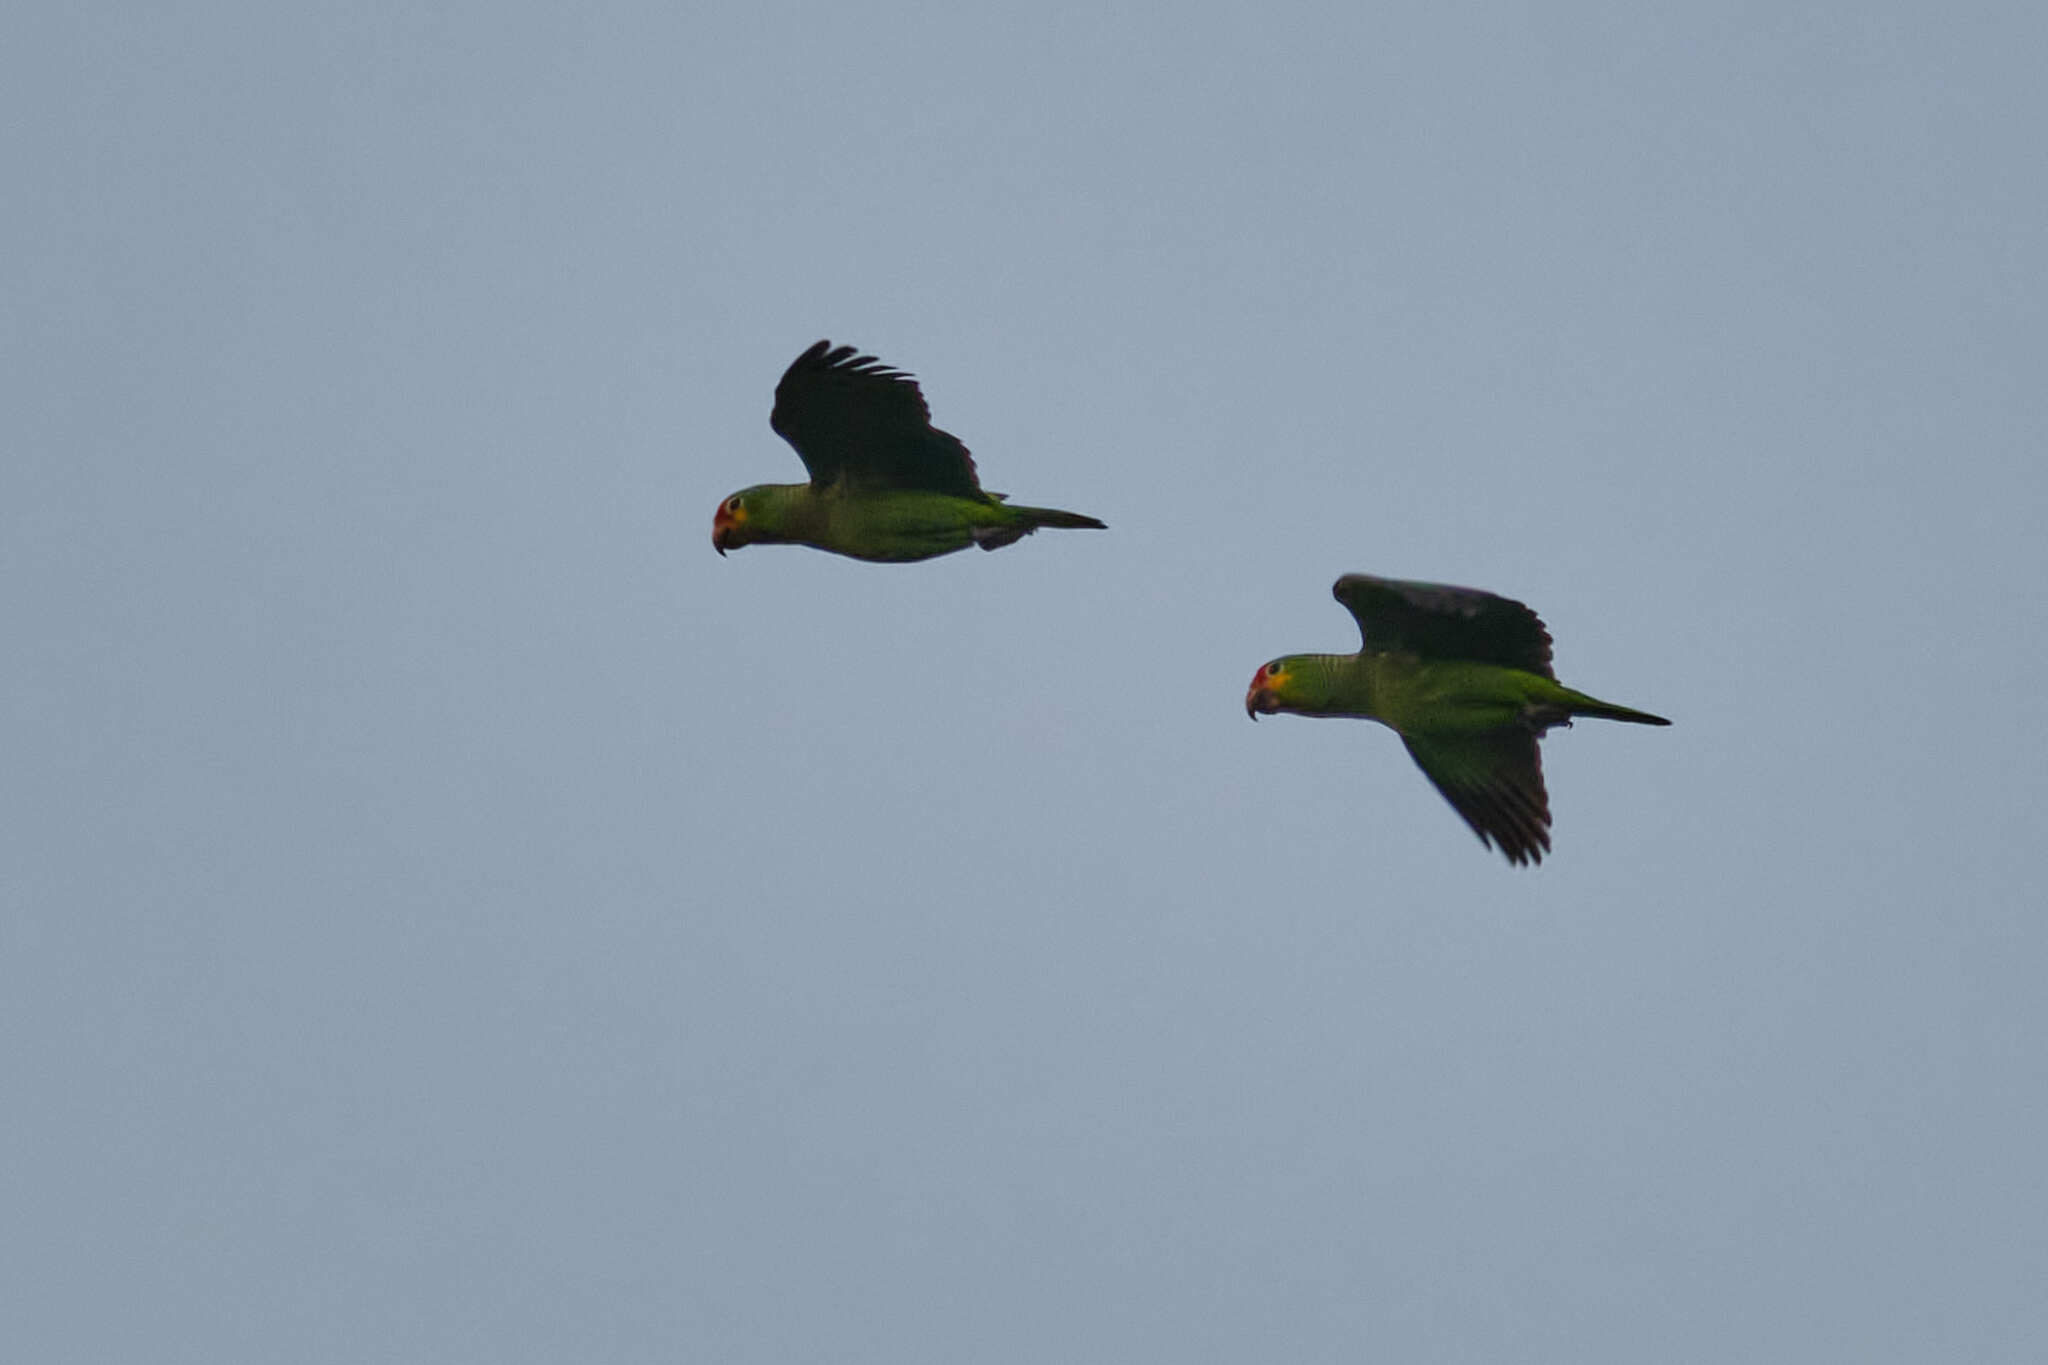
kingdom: Animalia
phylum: Chordata
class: Aves
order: Psittaciformes
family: Psittacidae
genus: Amazona
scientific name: Amazona autumnalis
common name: Red-lored amazon
